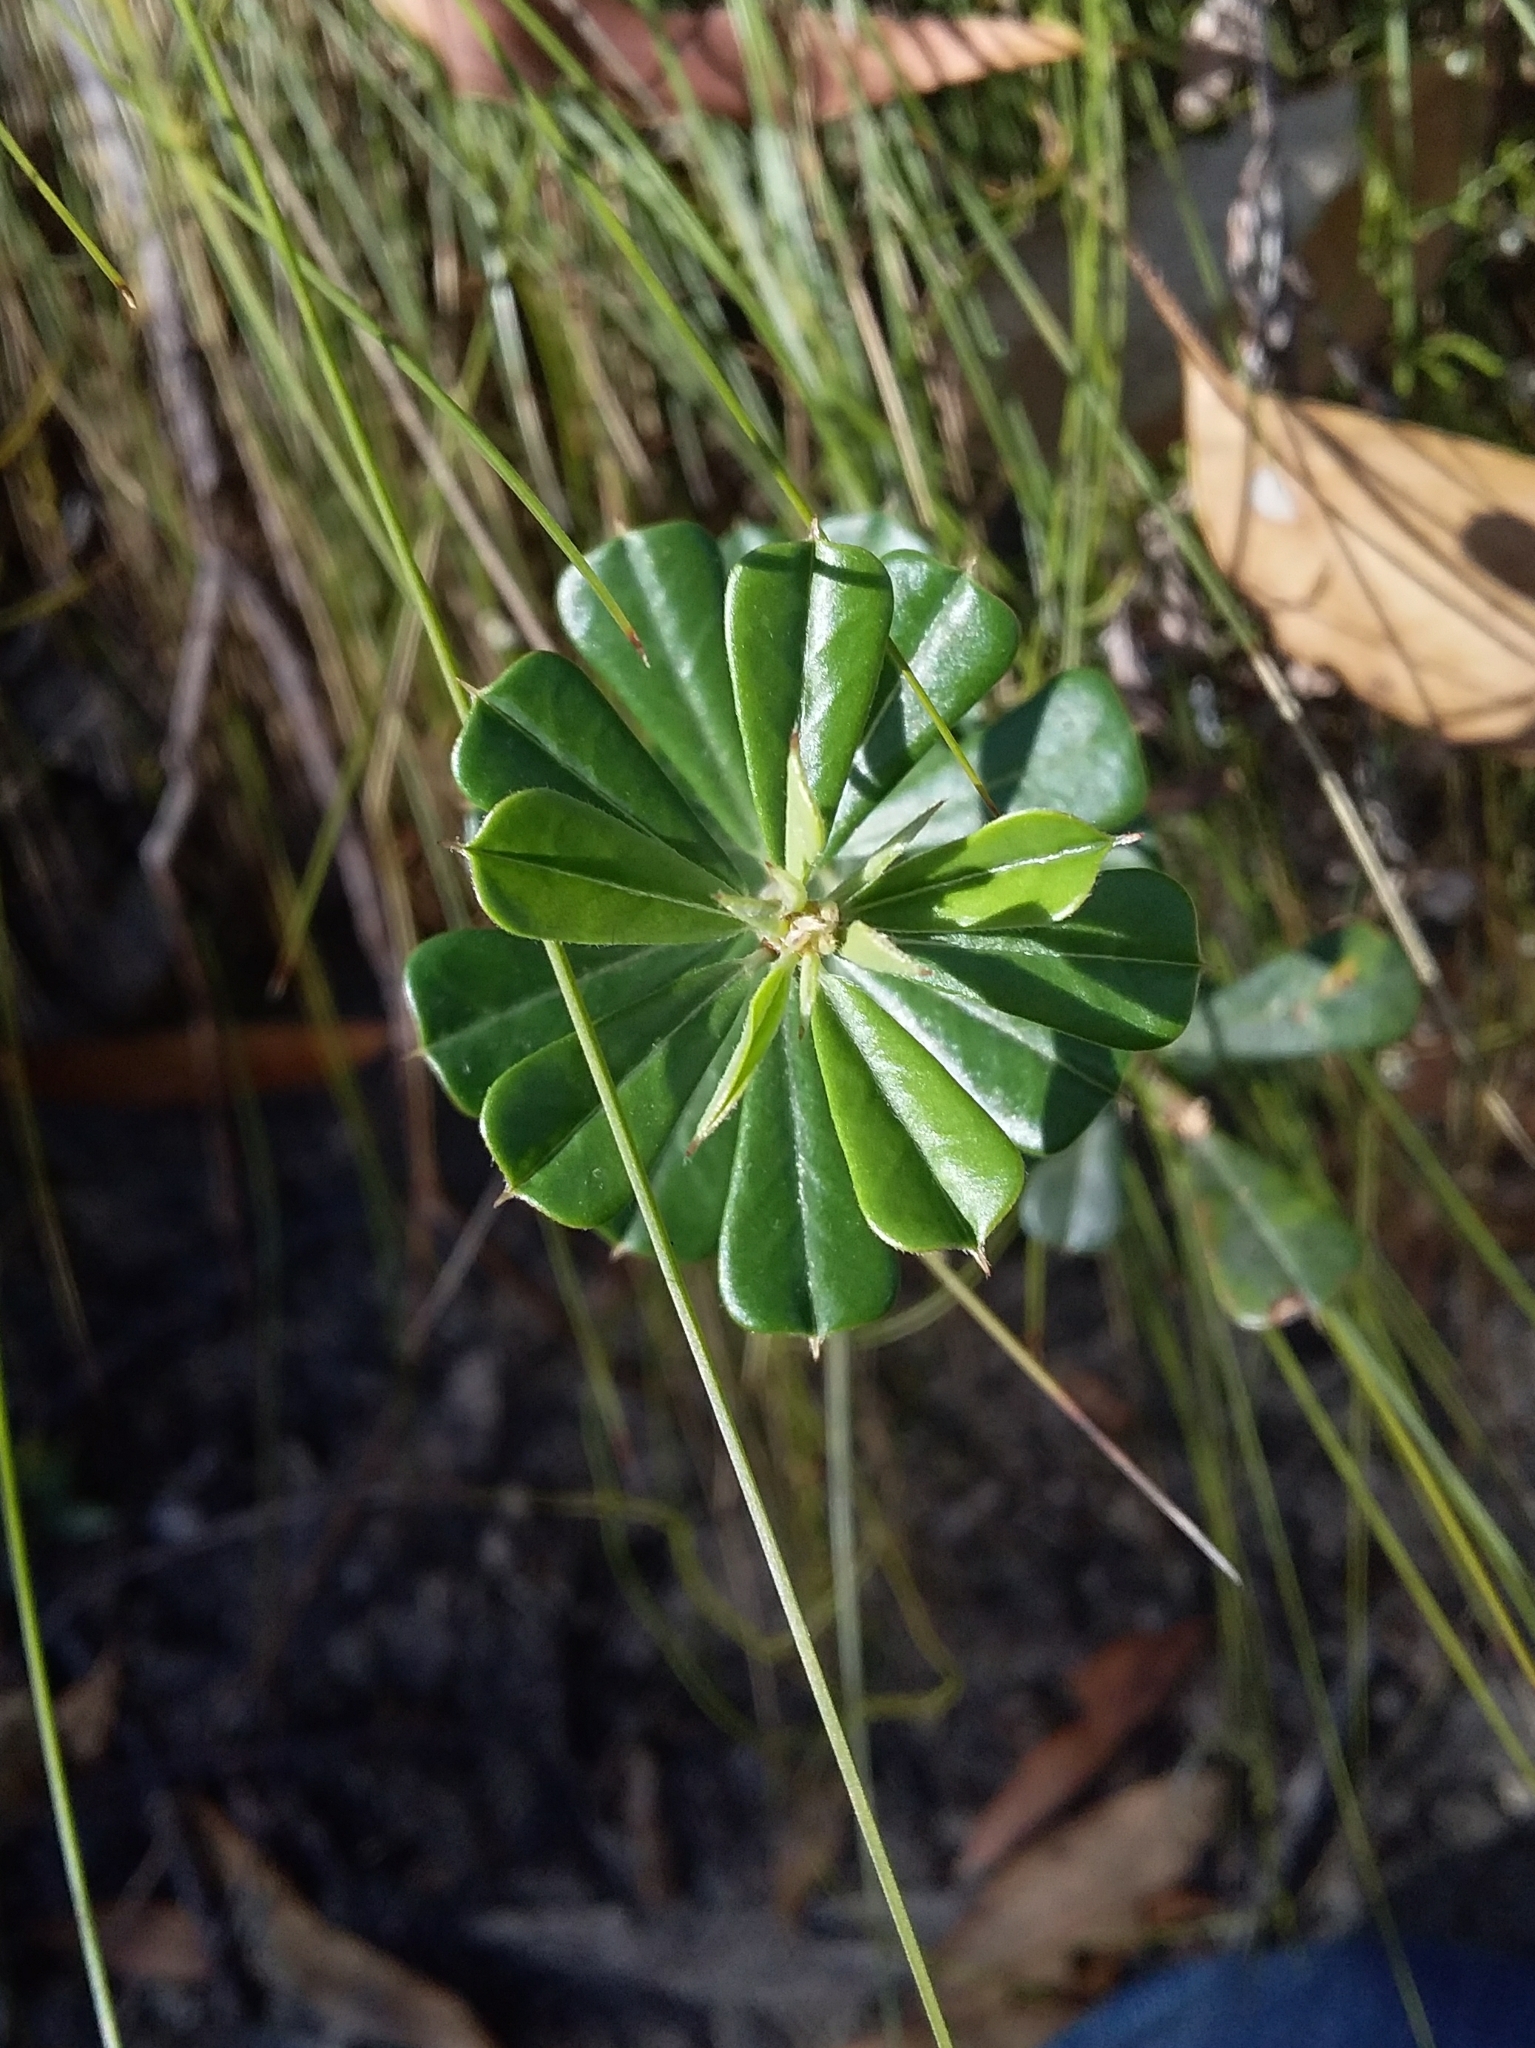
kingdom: Plantae
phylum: Tracheophyta
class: Magnoliopsida
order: Fabales
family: Fabaceae
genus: Pultenaea
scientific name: Pultenaea daphnoides
